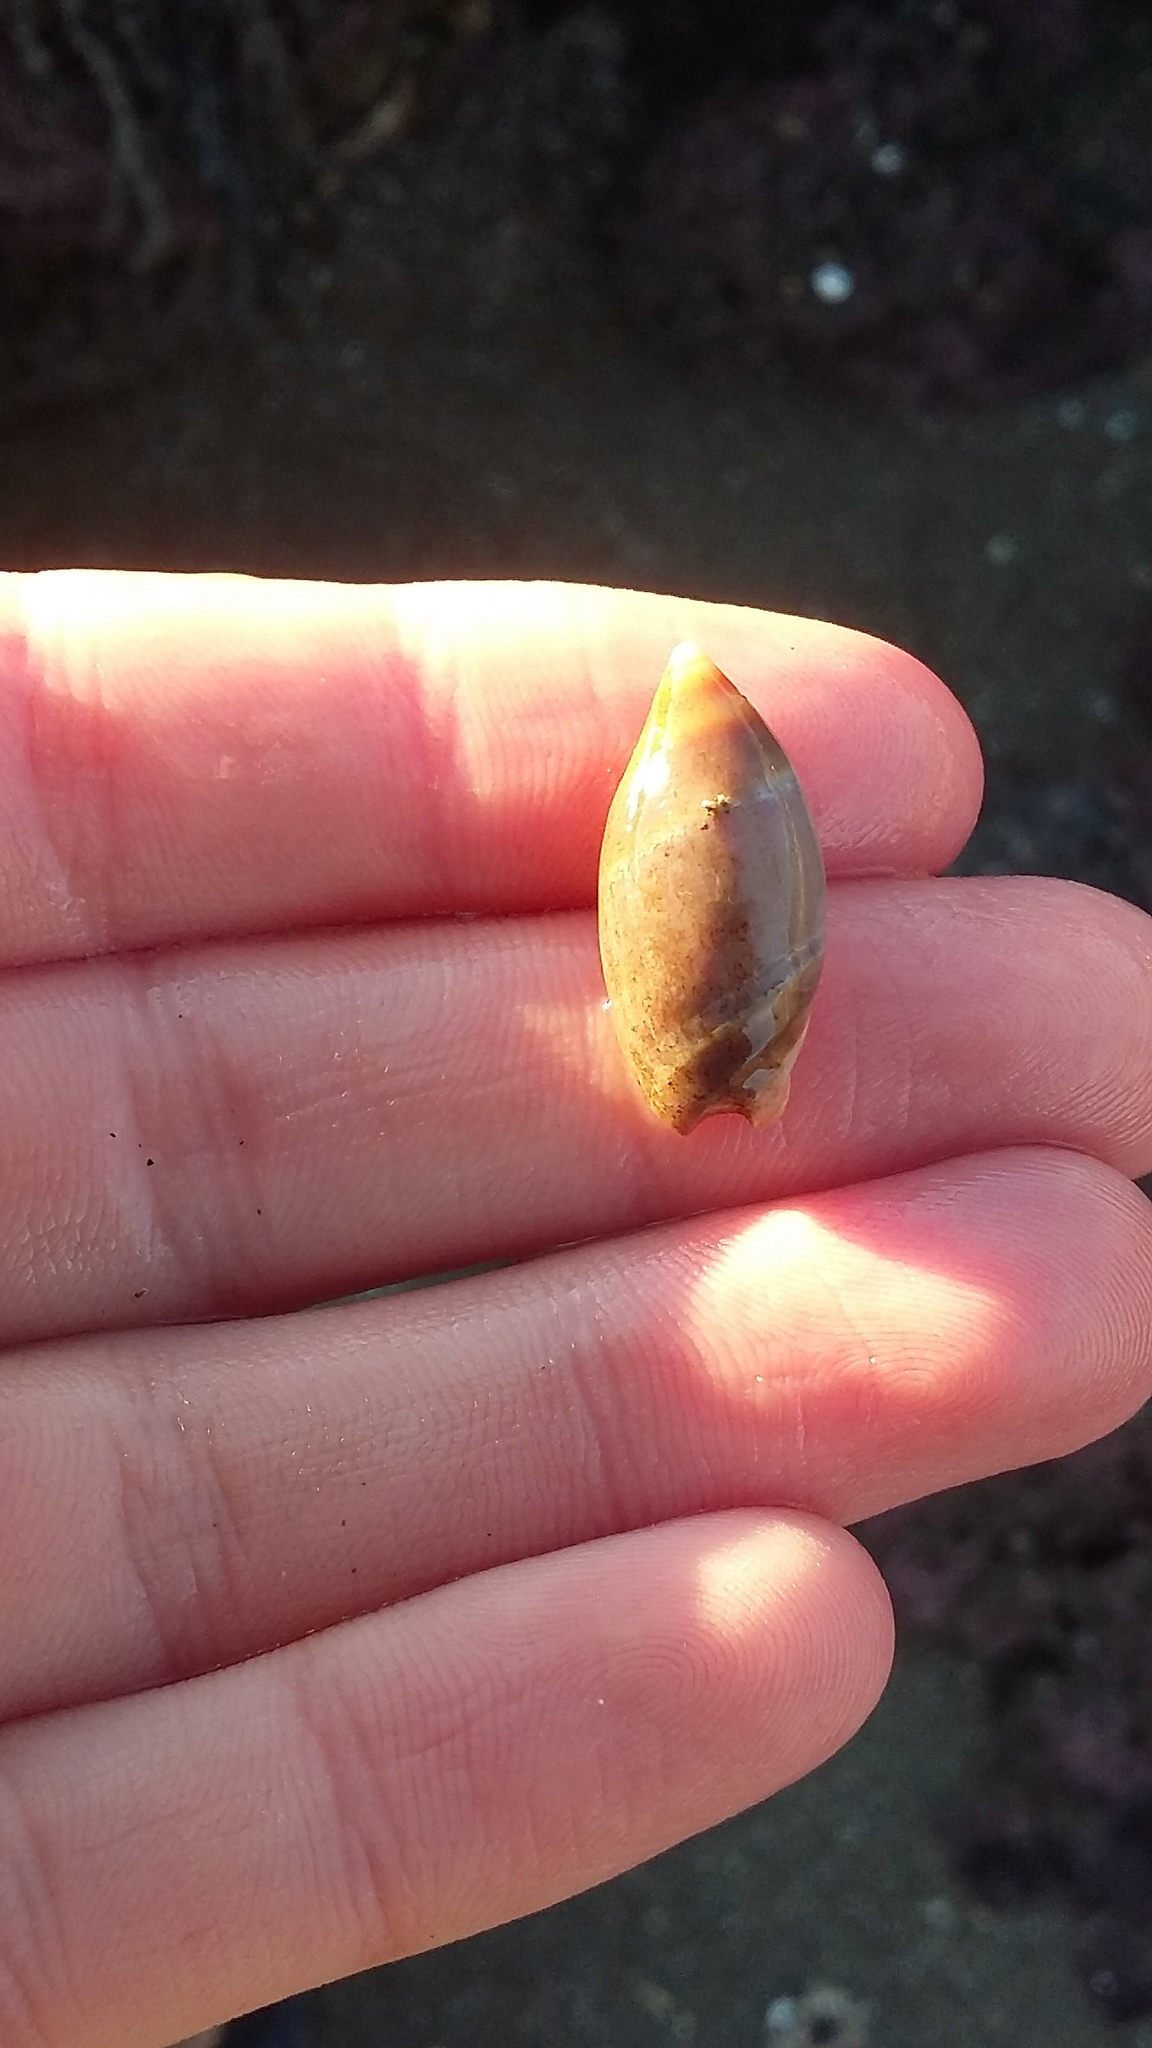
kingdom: Animalia
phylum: Mollusca
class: Gastropoda
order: Neogastropoda
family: Ancillariidae
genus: Amalda
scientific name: Amalda australis
